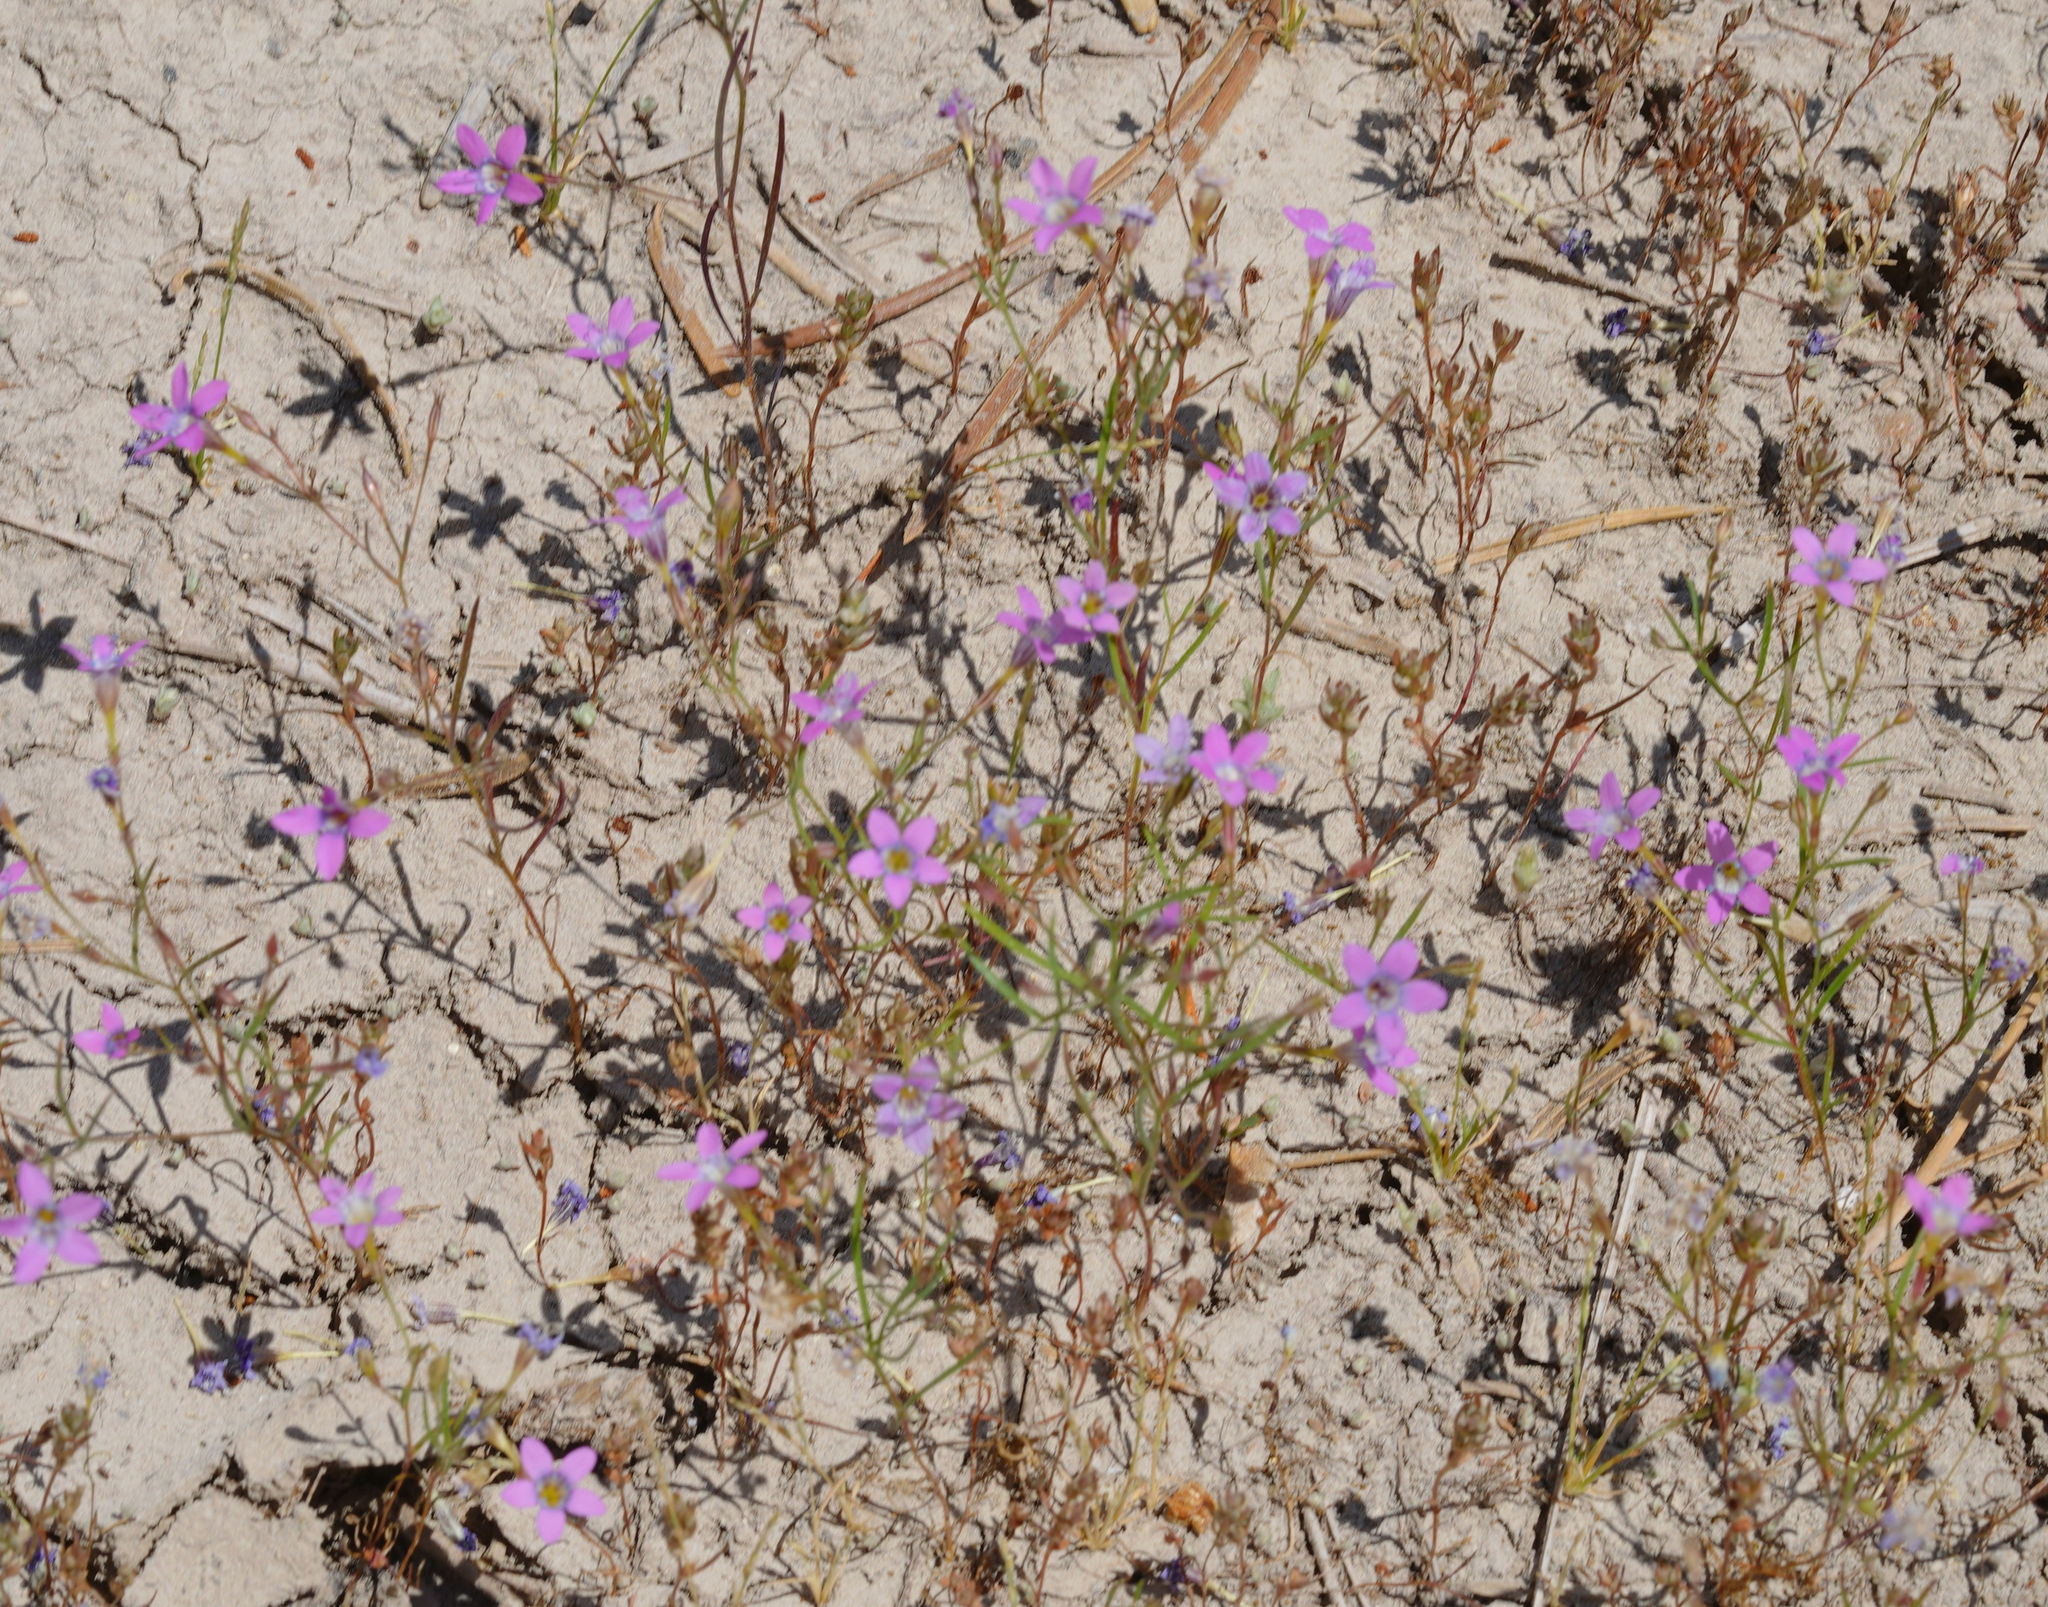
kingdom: Plantae
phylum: Tracheophyta
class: Magnoliopsida
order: Ericales
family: Polemoniaceae
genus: Navarretia
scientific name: Navarretia leptalea
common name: Bridges' pincushionplant
